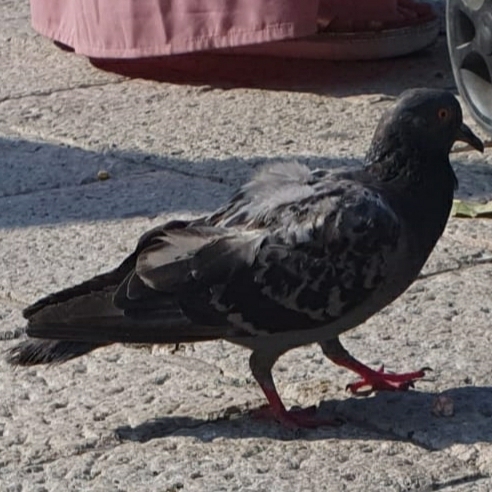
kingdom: Animalia
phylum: Chordata
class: Aves
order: Columbiformes
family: Columbidae
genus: Columba
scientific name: Columba livia
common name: Rock pigeon
